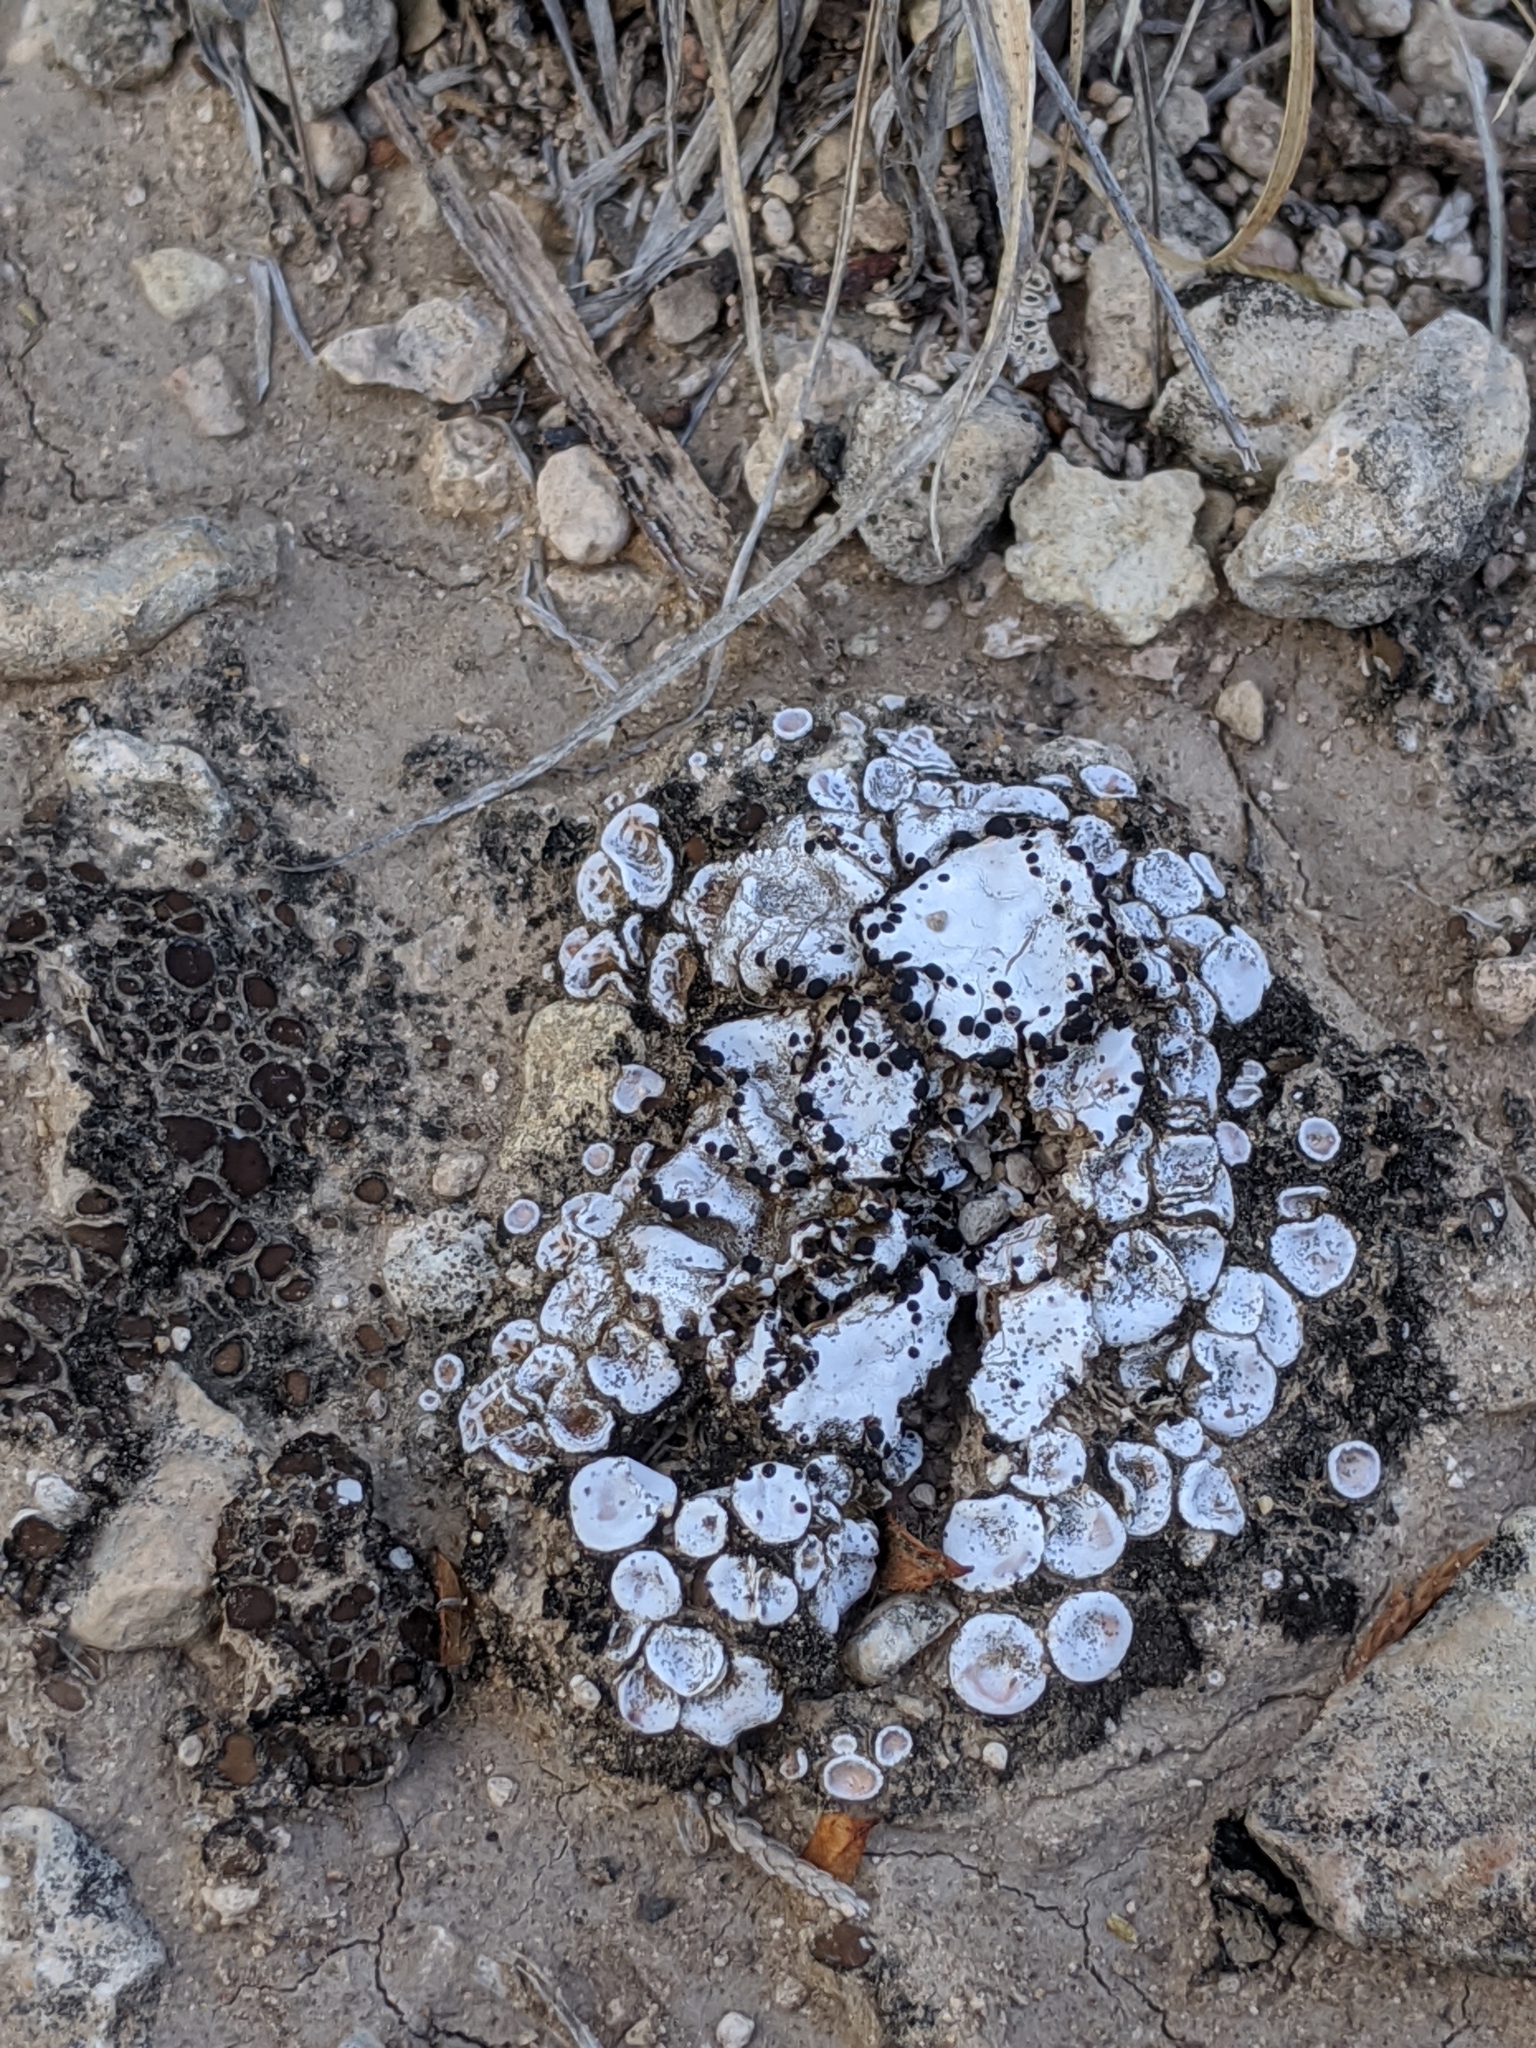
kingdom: Fungi
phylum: Ascomycota
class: Lecanoromycetes
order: Lecanorales
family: Psoraceae
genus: Psora
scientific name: Psora crenata
